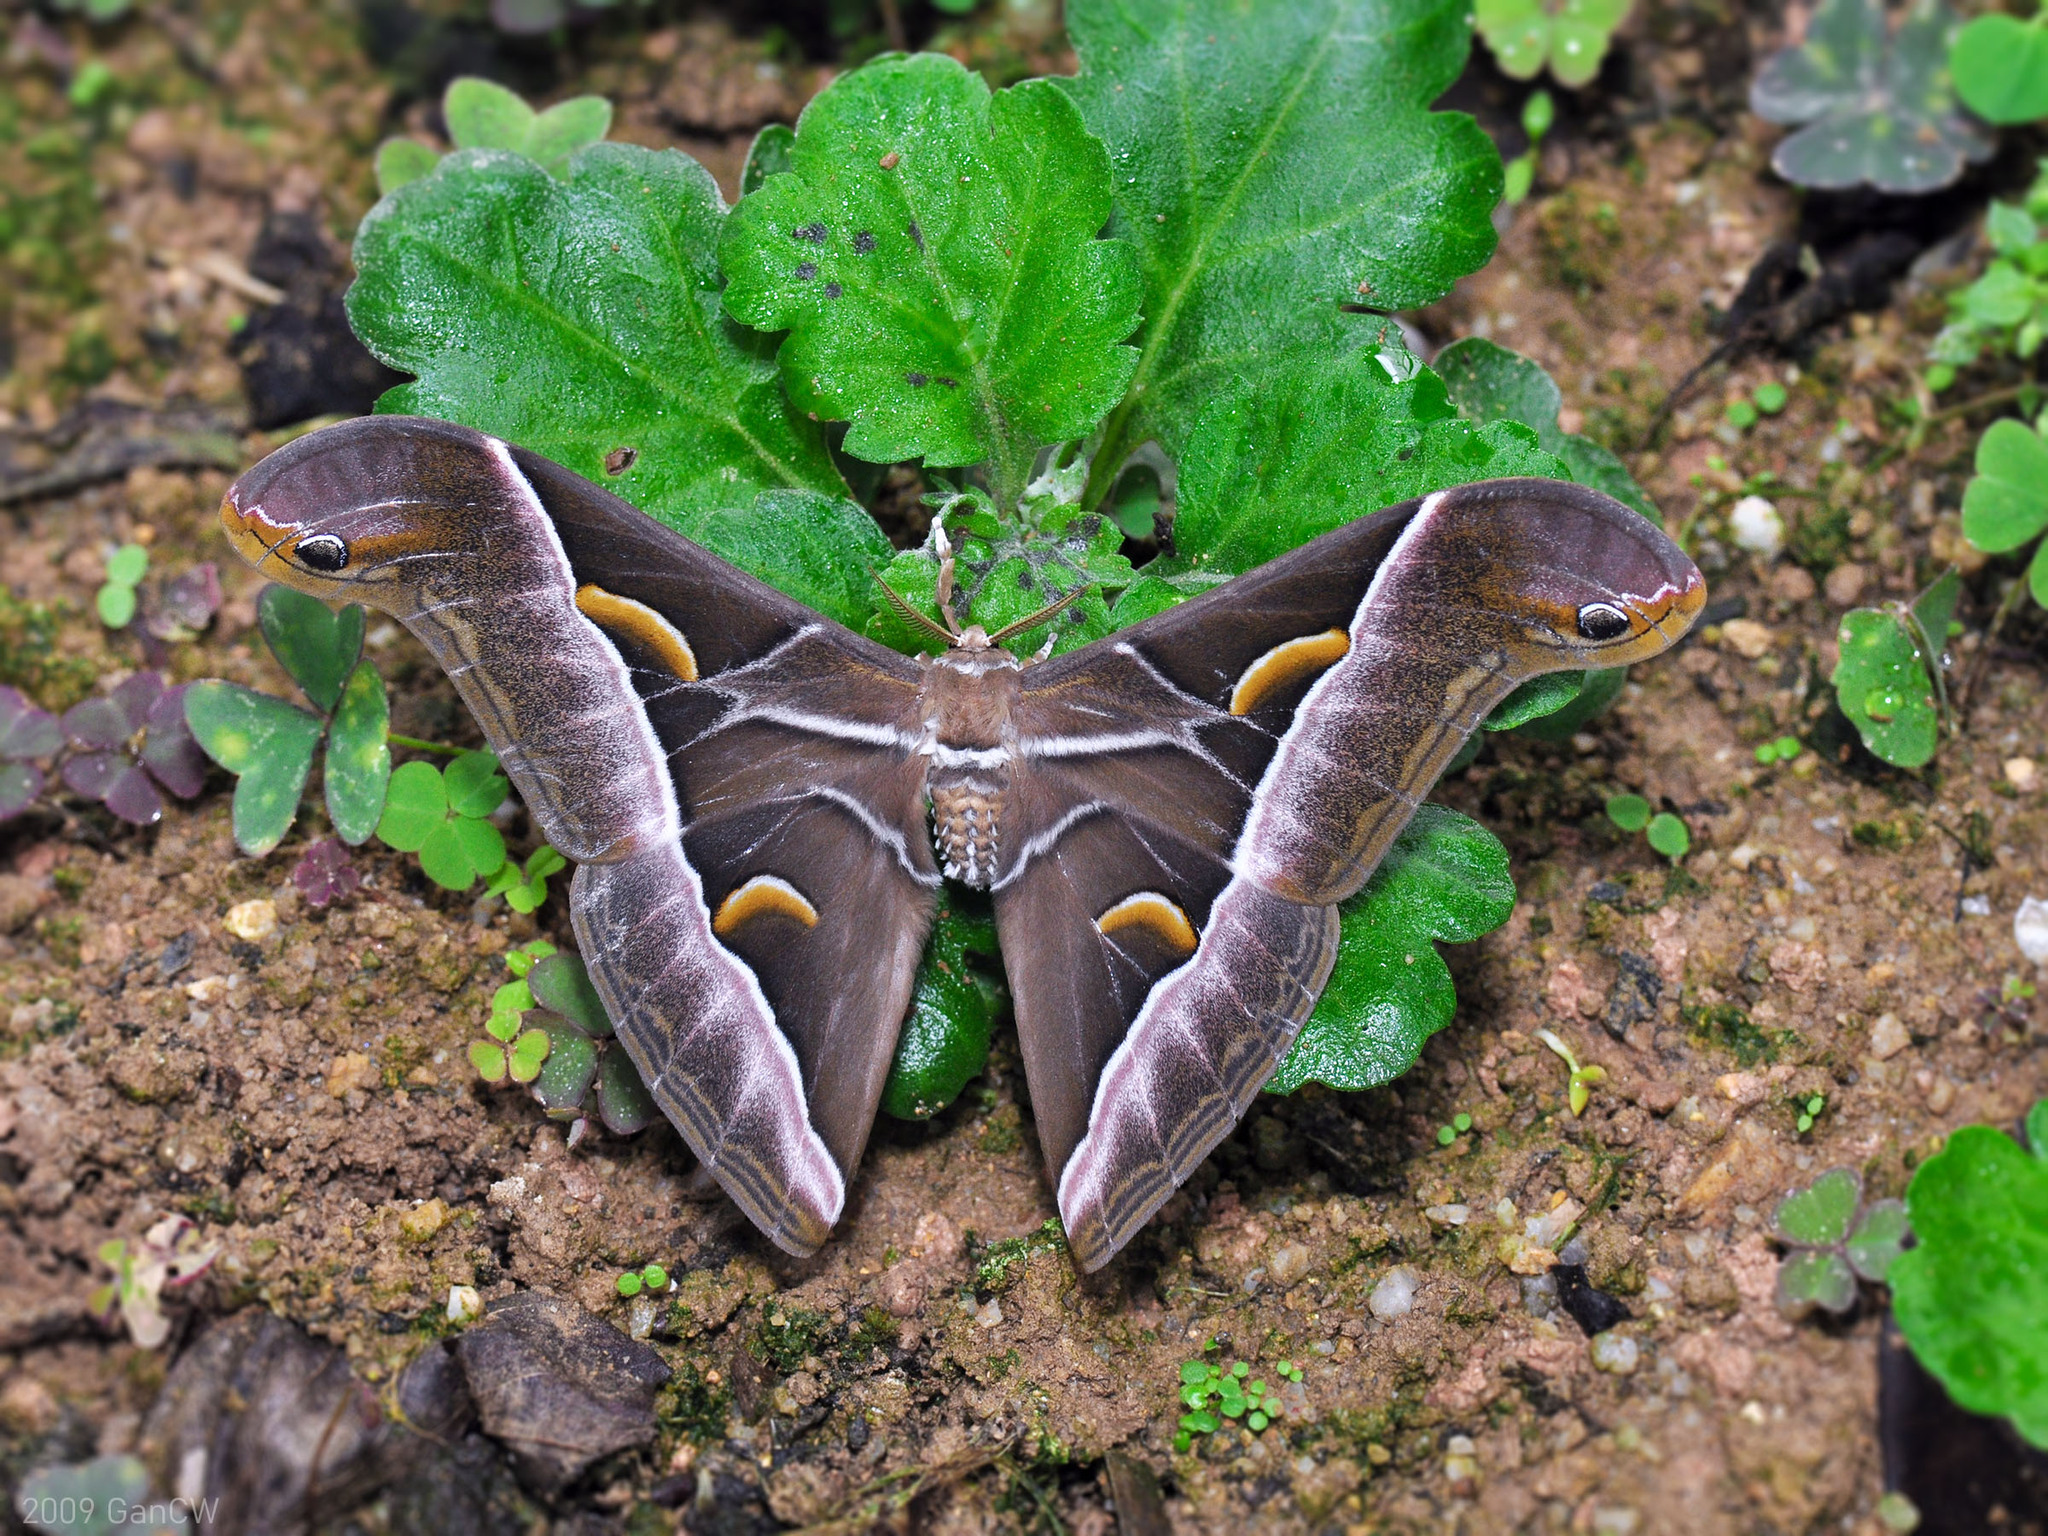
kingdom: Animalia
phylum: Arthropoda
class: Insecta
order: Lepidoptera
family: Saturniidae
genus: Samia
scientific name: Samia tetrica
